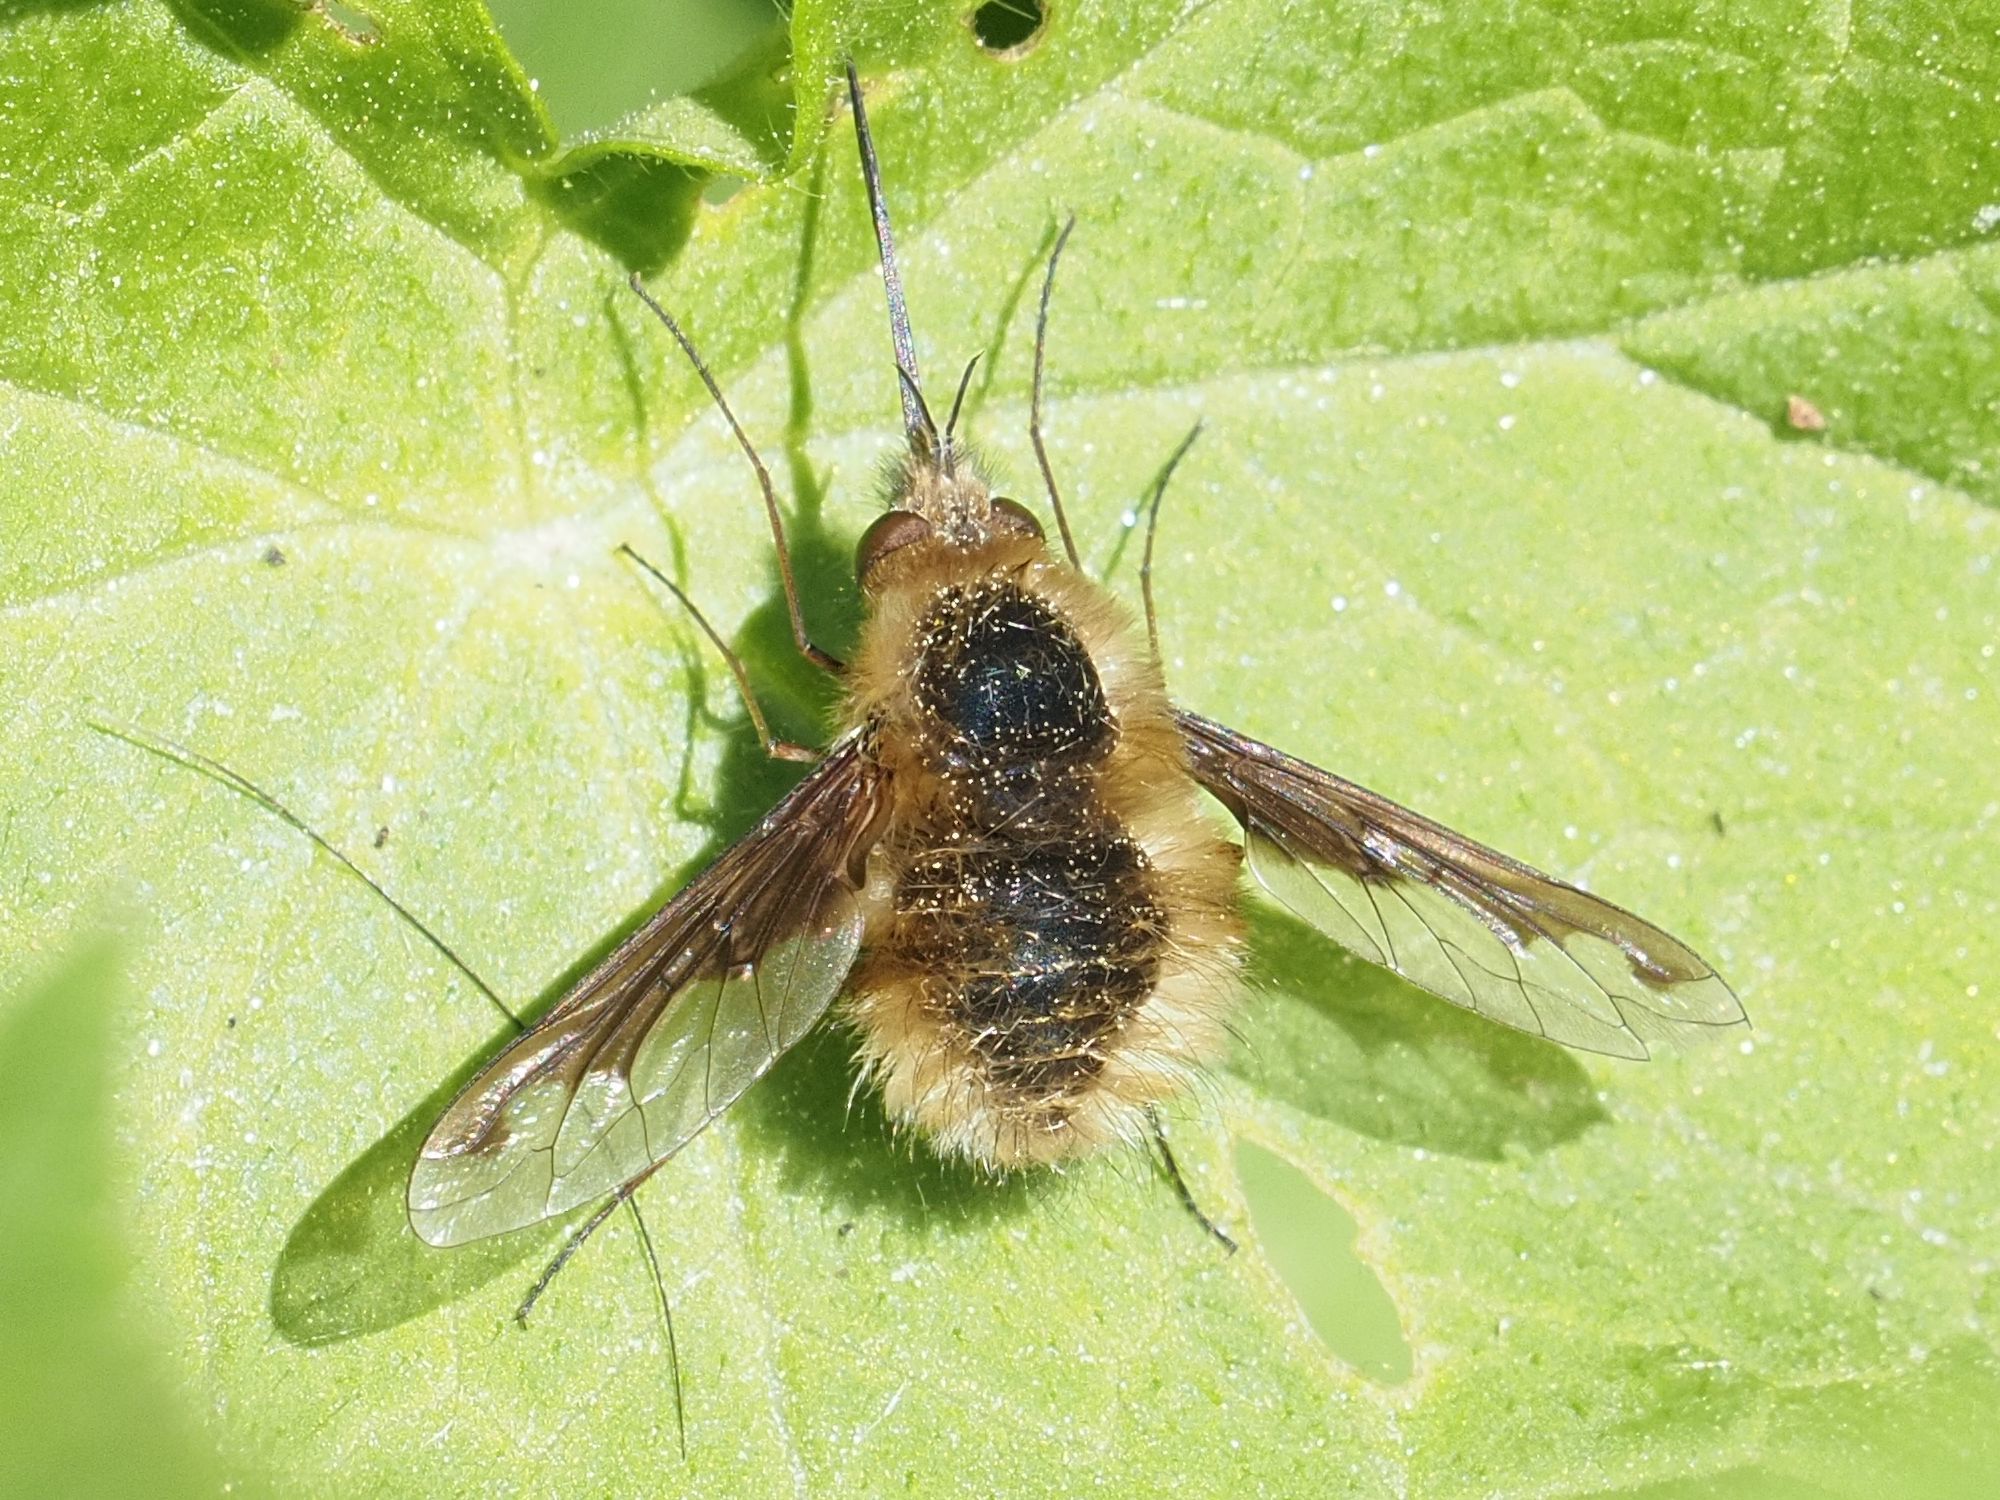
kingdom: Animalia
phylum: Arthropoda
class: Insecta
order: Diptera
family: Bombyliidae
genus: Bombylius
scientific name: Bombylius major
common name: Bee fly
